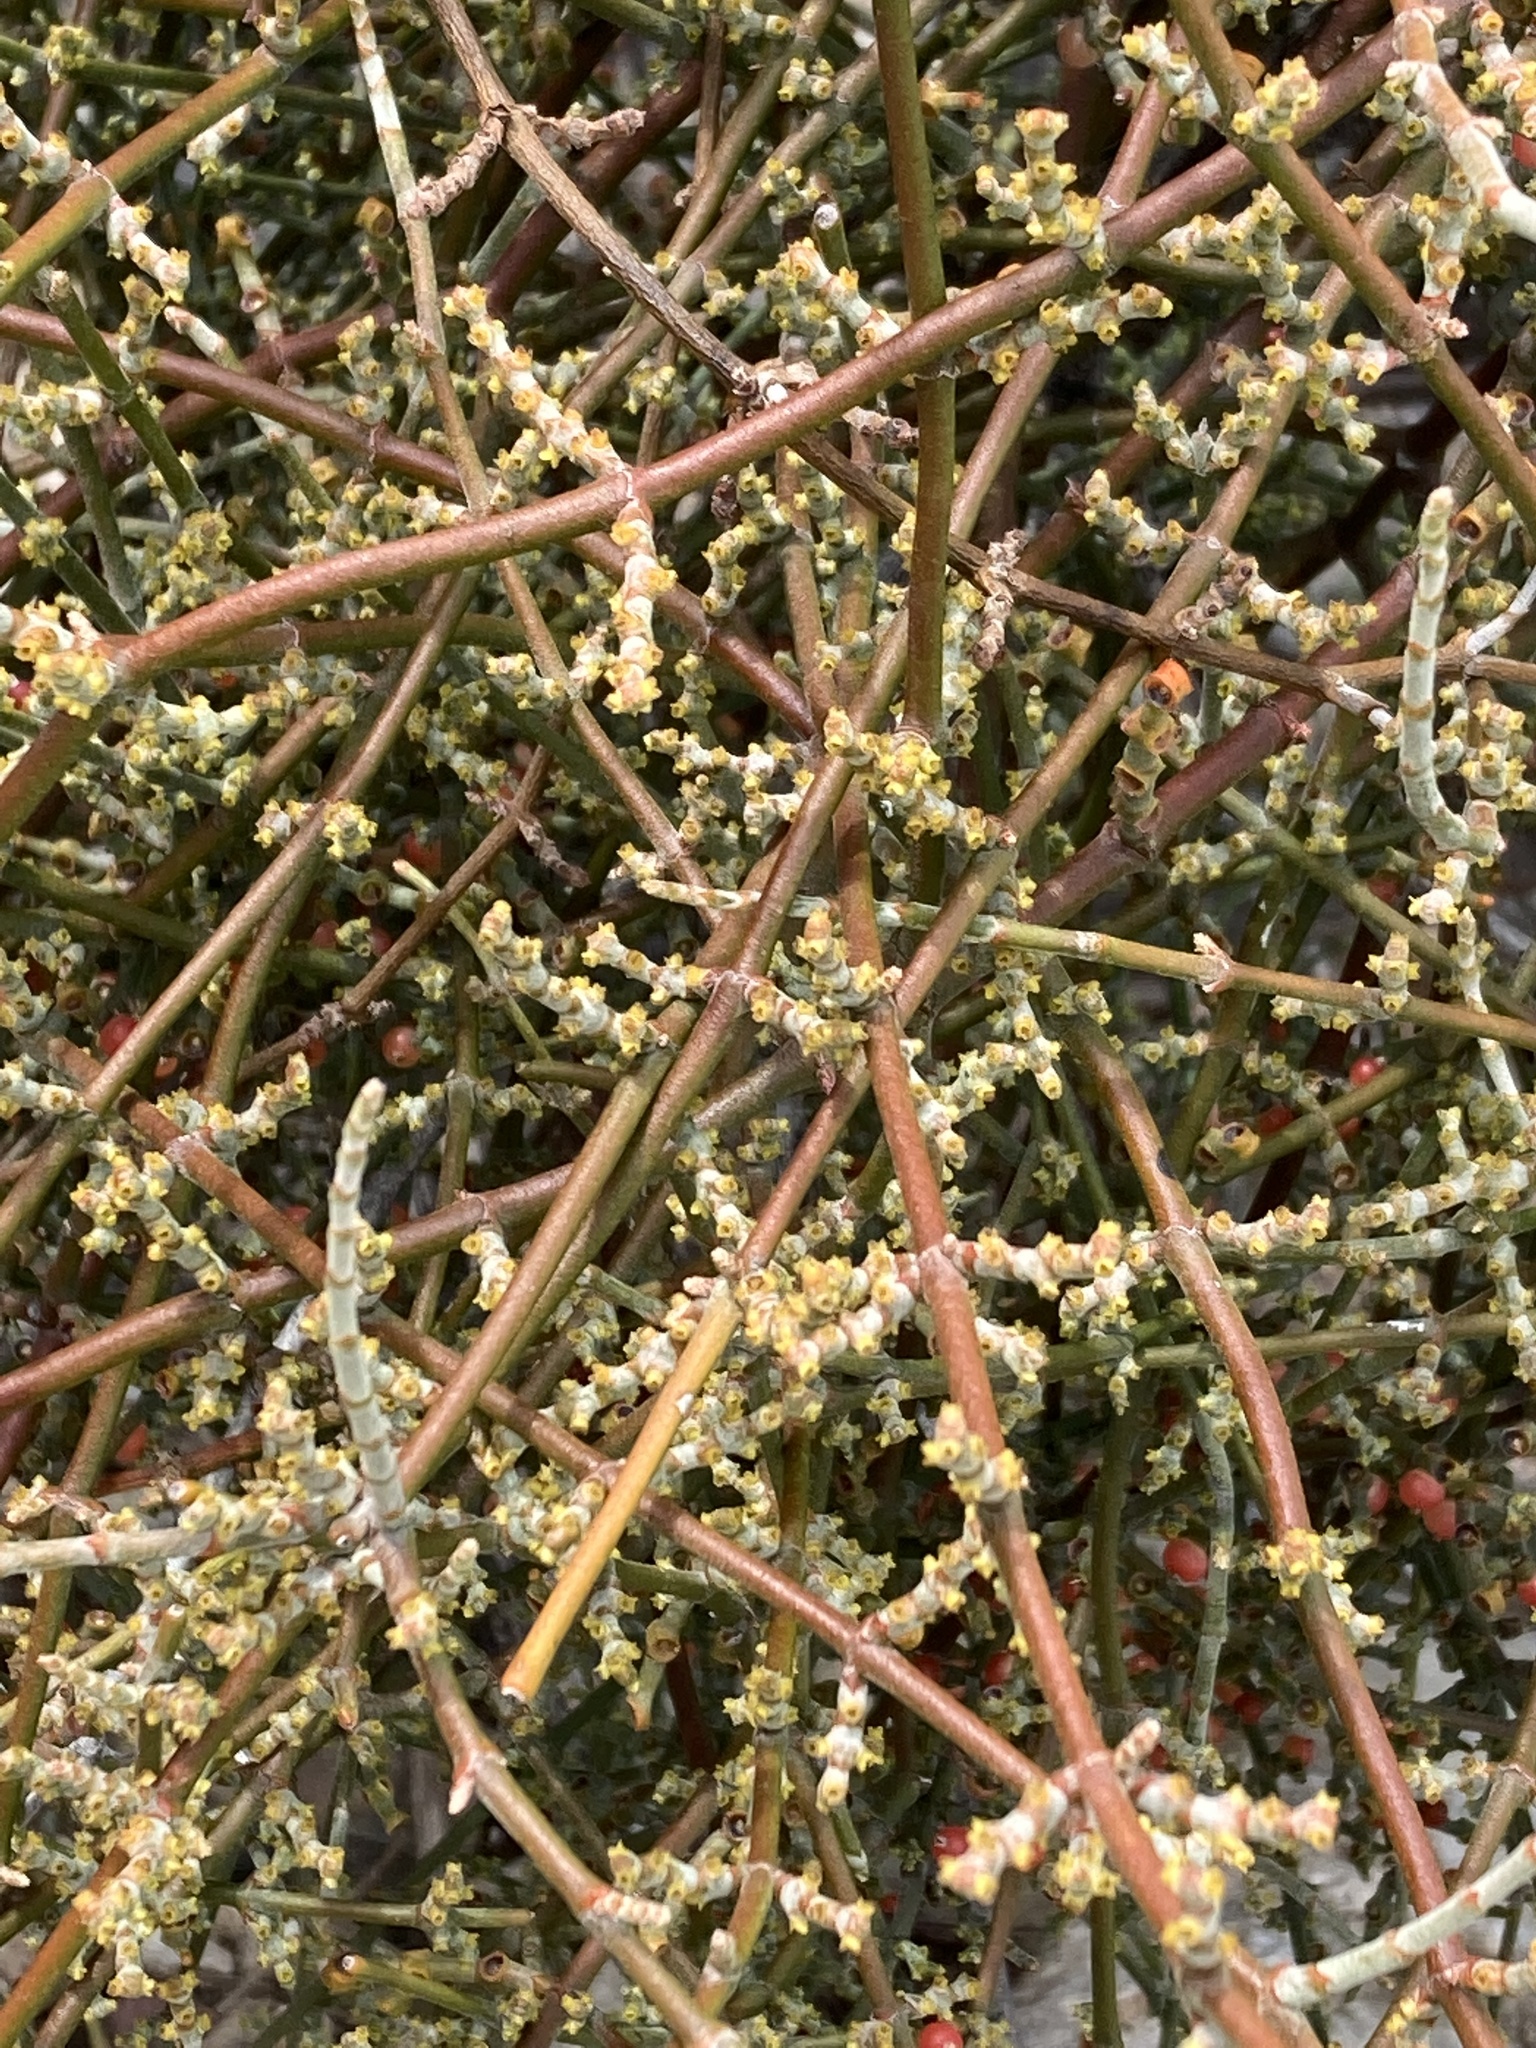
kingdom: Plantae
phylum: Tracheophyta
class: Magnoliopsida
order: Santalales
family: Viscaceae
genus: Phoradendron
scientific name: Phoradendron californicum
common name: Acacia mistletoe
